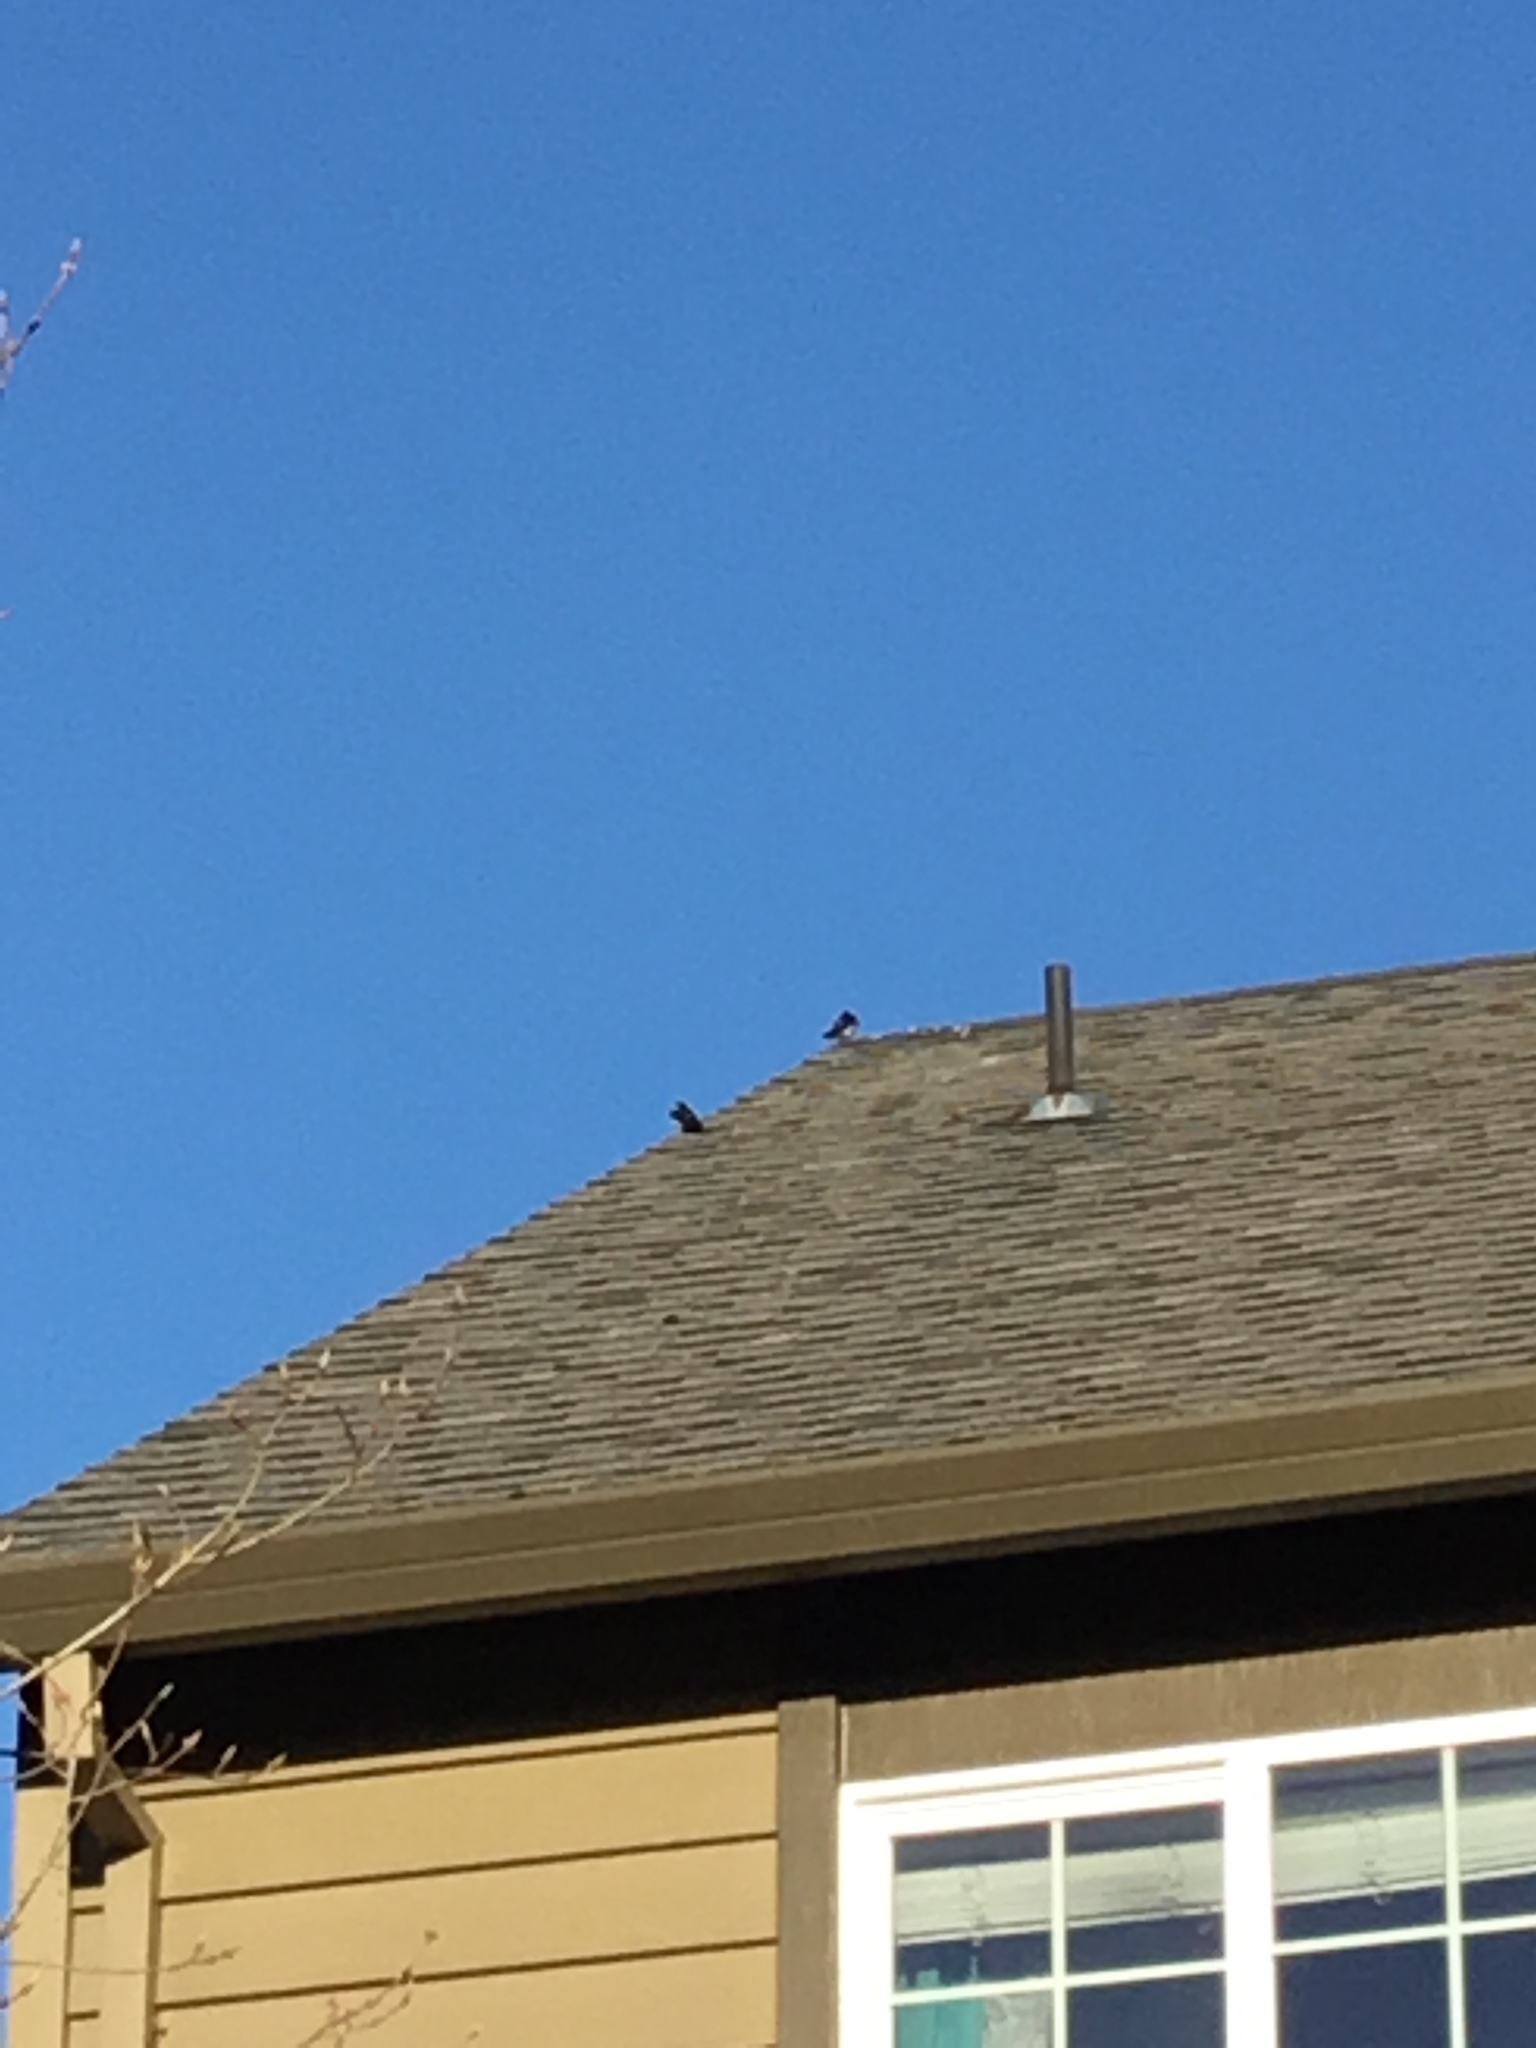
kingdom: Animalia
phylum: Chordata
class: Aves
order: Passeriformes
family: Hirundinidae
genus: Tachycineta
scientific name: Tachycineta thalassina
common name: Violet-green swallow
